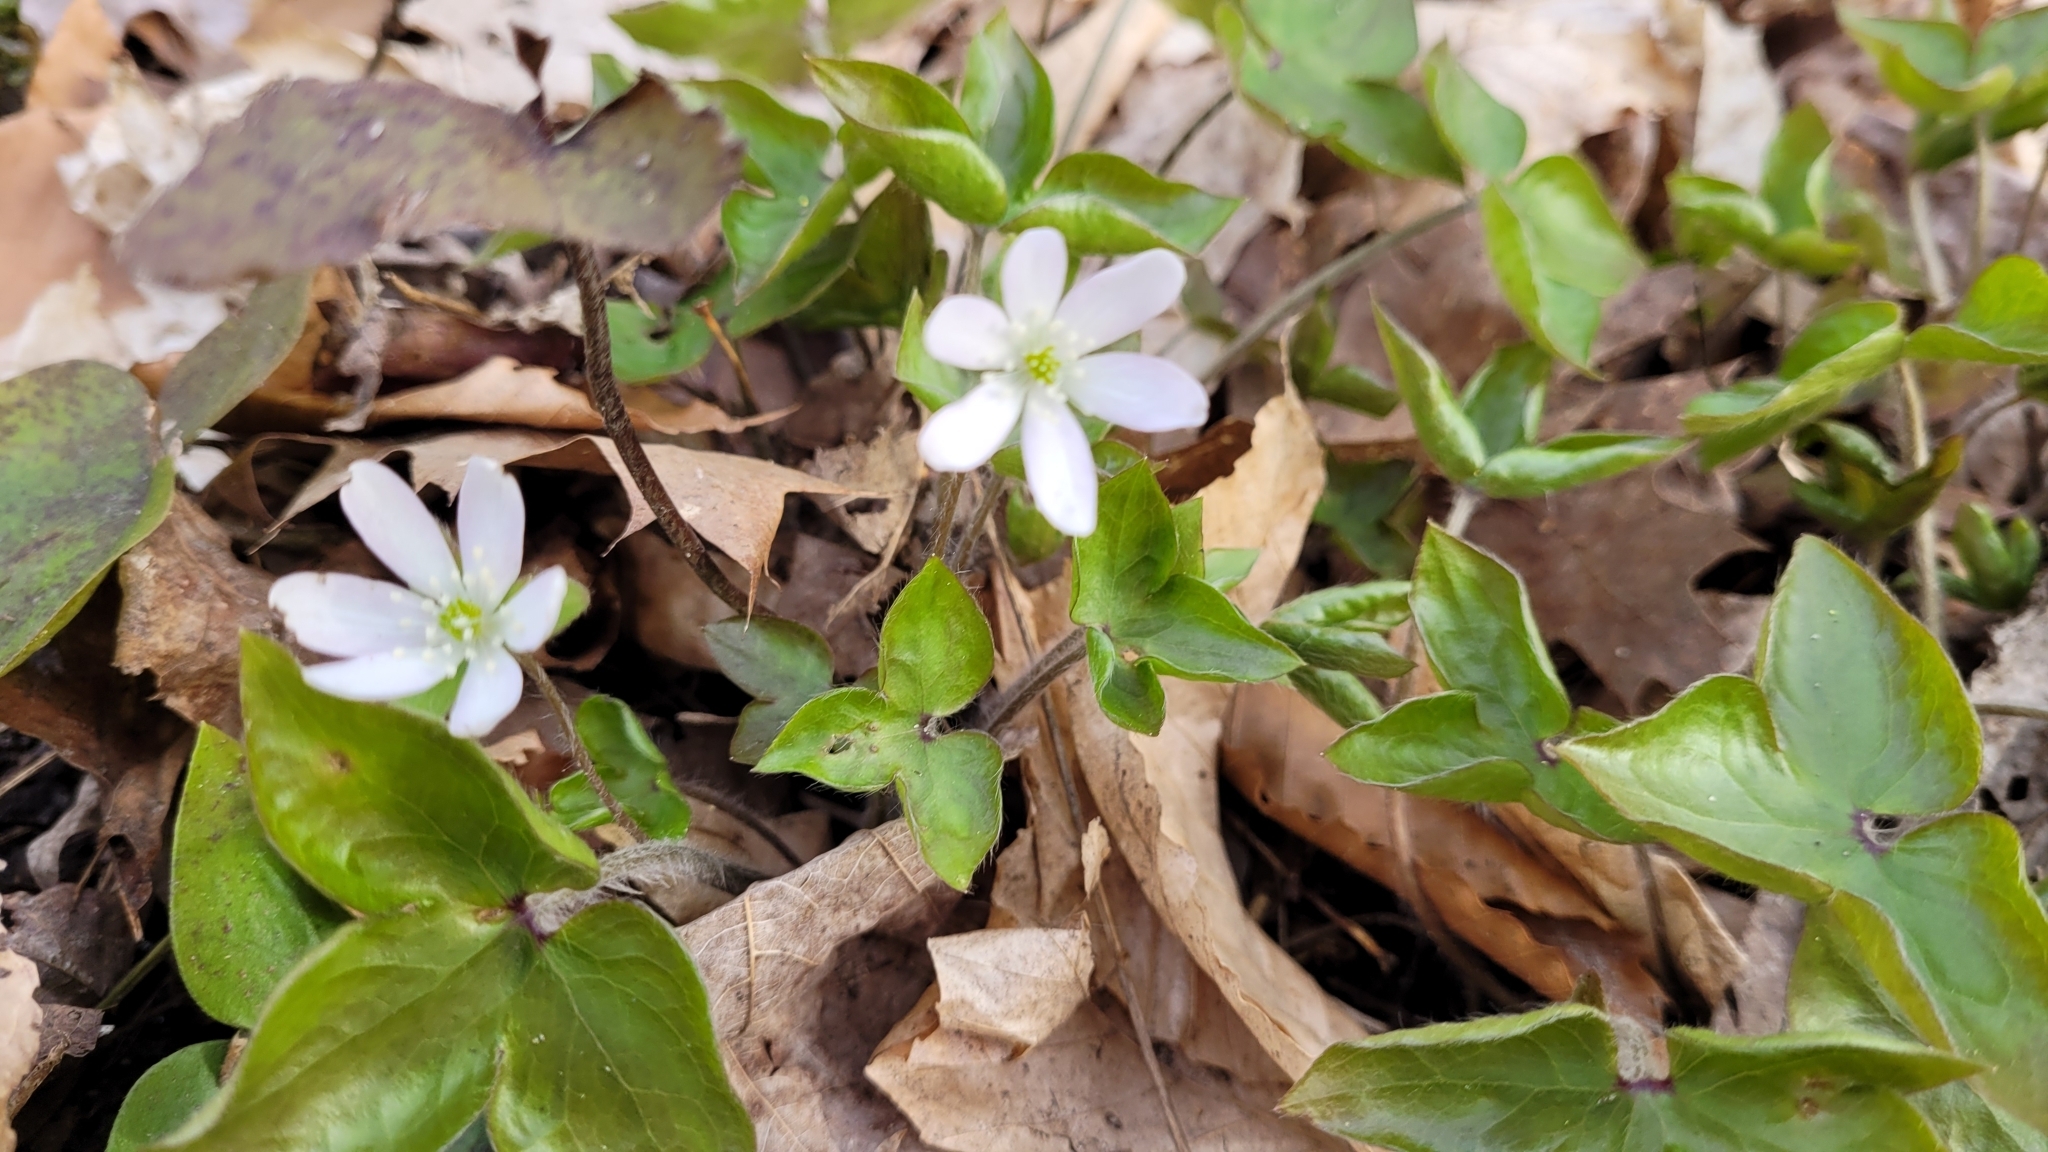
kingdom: Plantae
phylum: Tracheophyta
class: Magnoliopsida
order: Ranunculales
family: Ranunculaceae
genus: Hepatica
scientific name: Hepatica acutiloba
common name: Sharp-lobed hepatica
